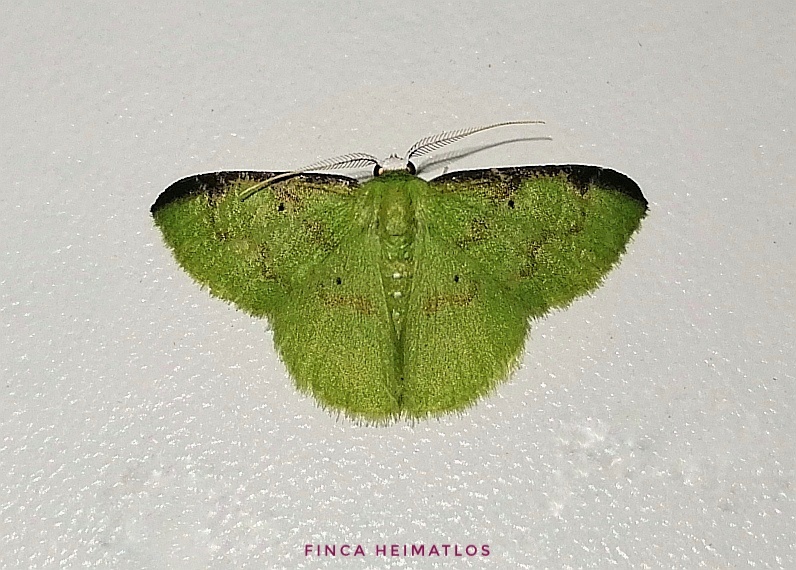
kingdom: Animalia
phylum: Arthropoda
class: Insecta
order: Lepidoptera
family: Geometridae
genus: Tachyphyle
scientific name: Tachyphyle costiscripta
